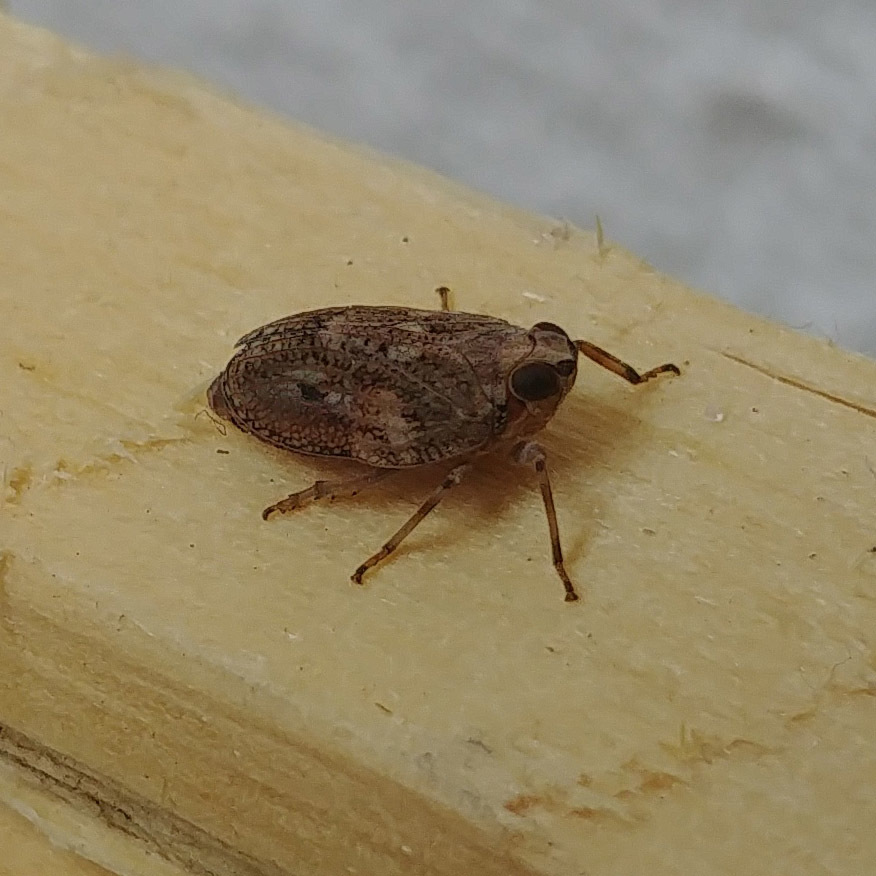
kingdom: Animalia
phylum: Arthropoda
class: Insecta
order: Hemiptera
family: Issidae
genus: Issus
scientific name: Issus coleoptratus
